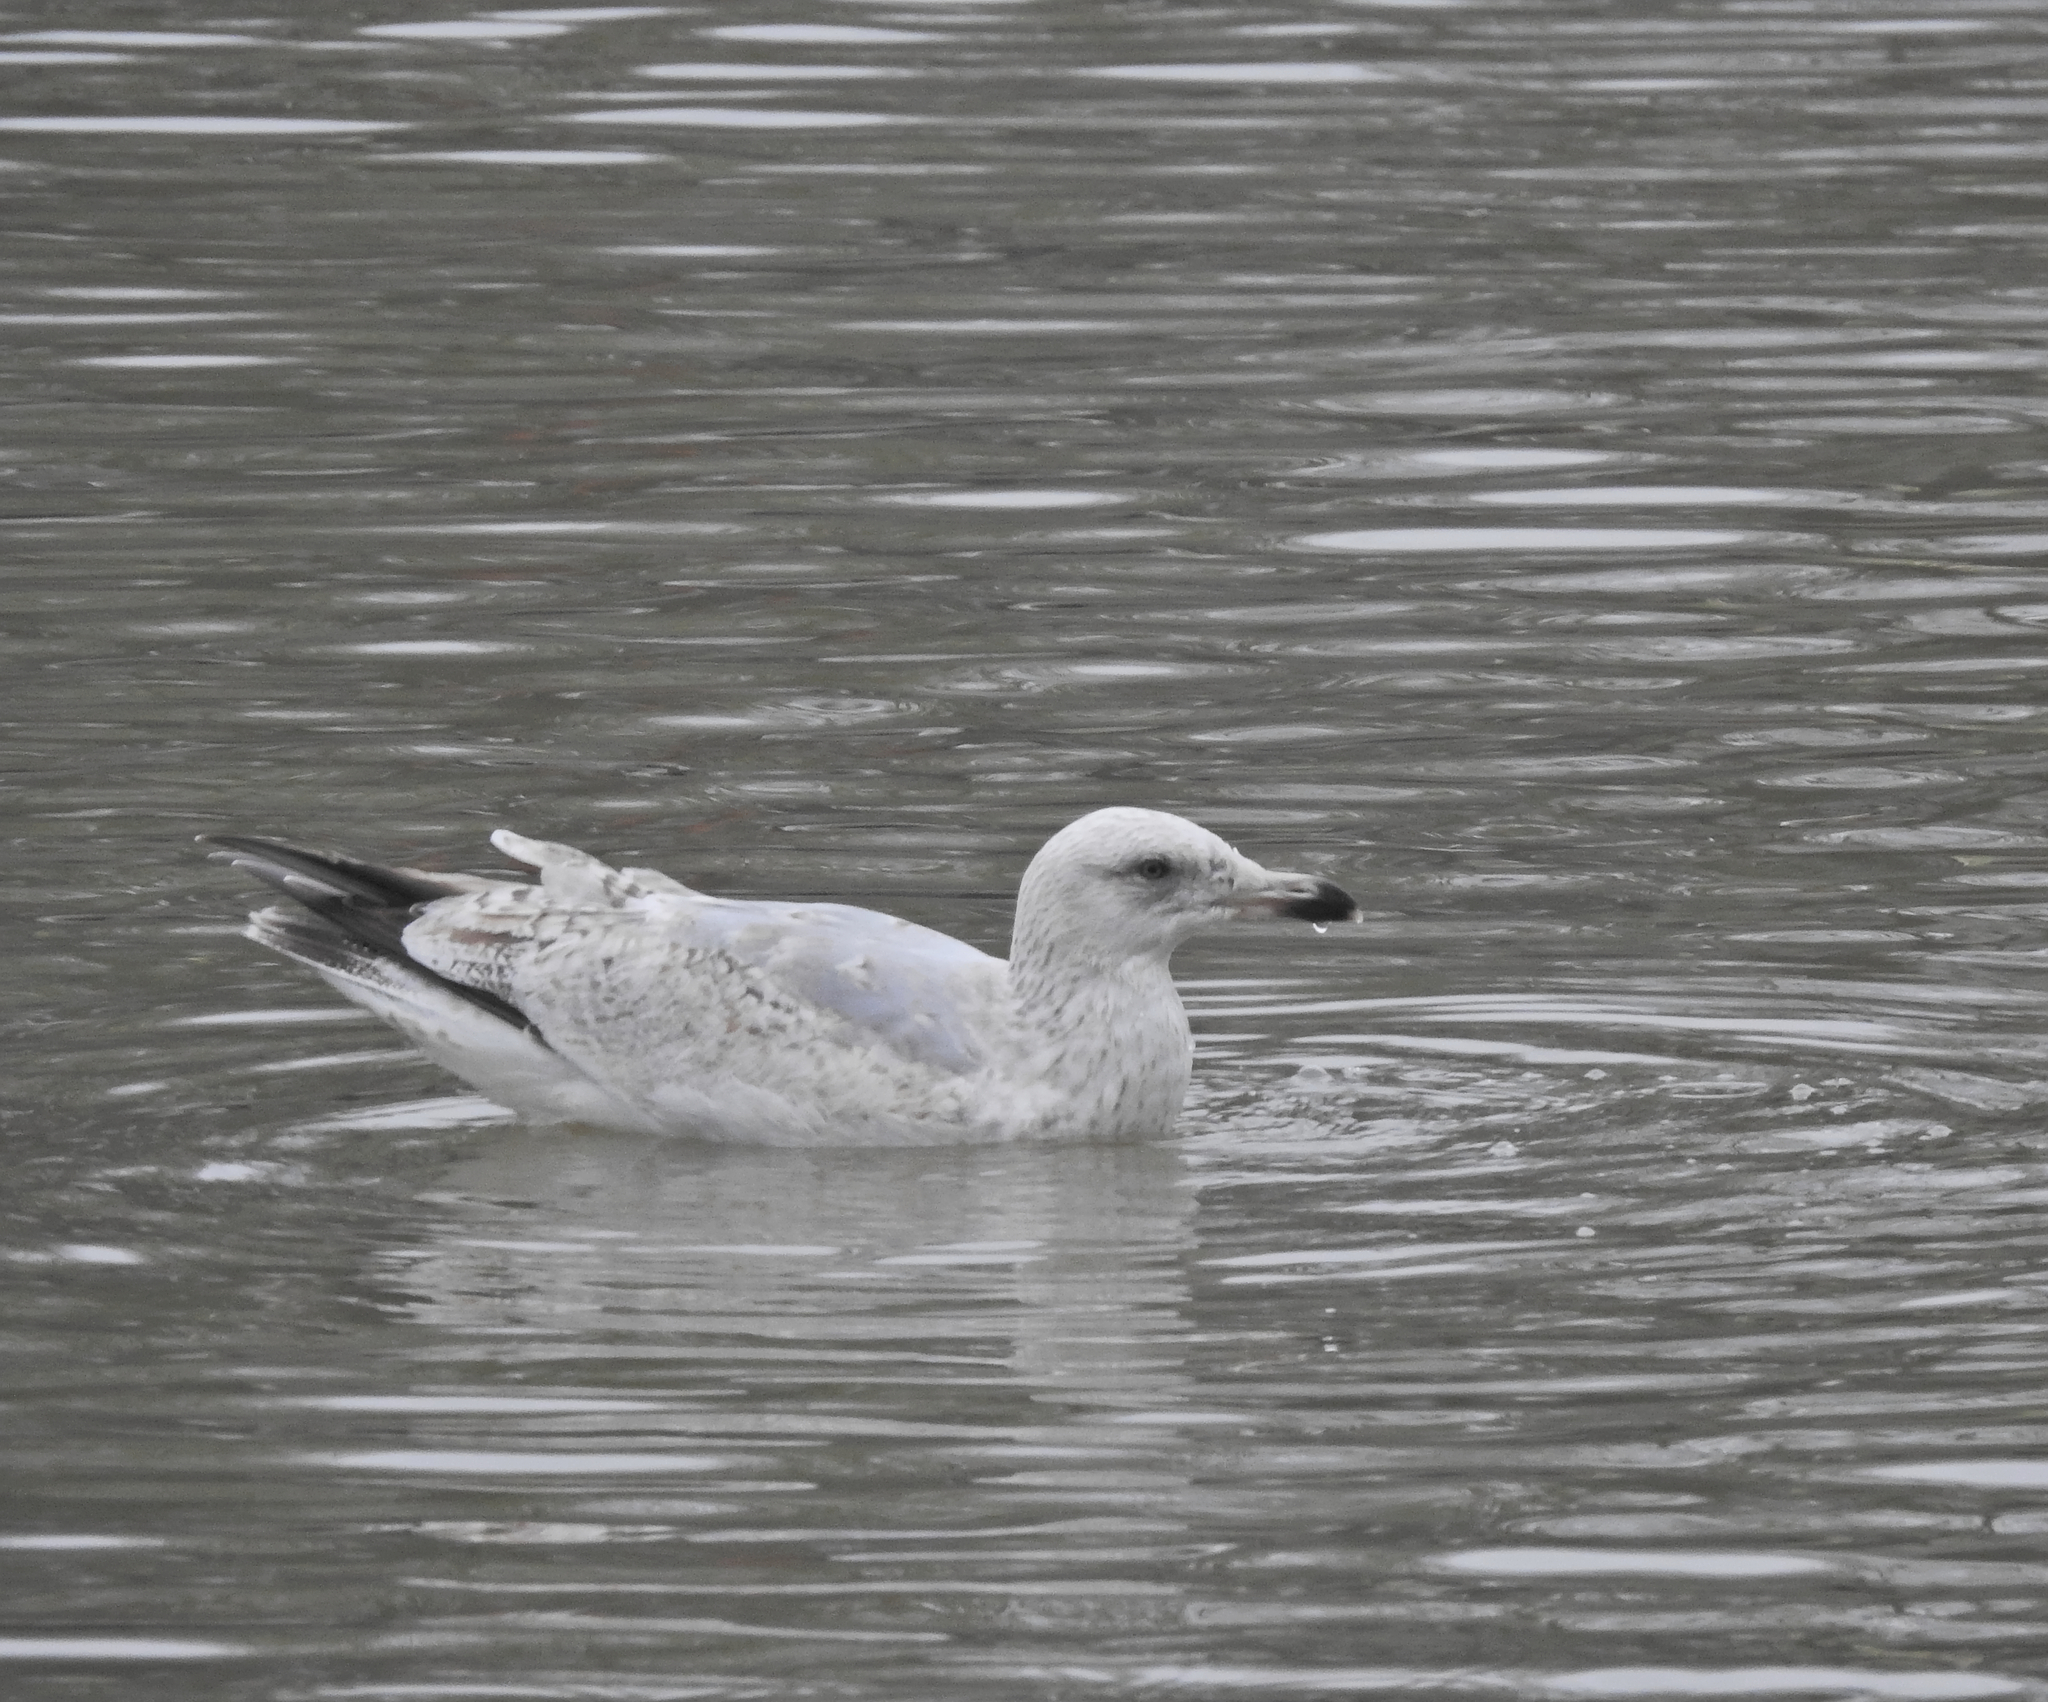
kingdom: Animalia
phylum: Chordata
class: Aves
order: Charadriiformes
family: Laridae
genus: Larus
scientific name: Larus argentatus
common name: Herring gull
